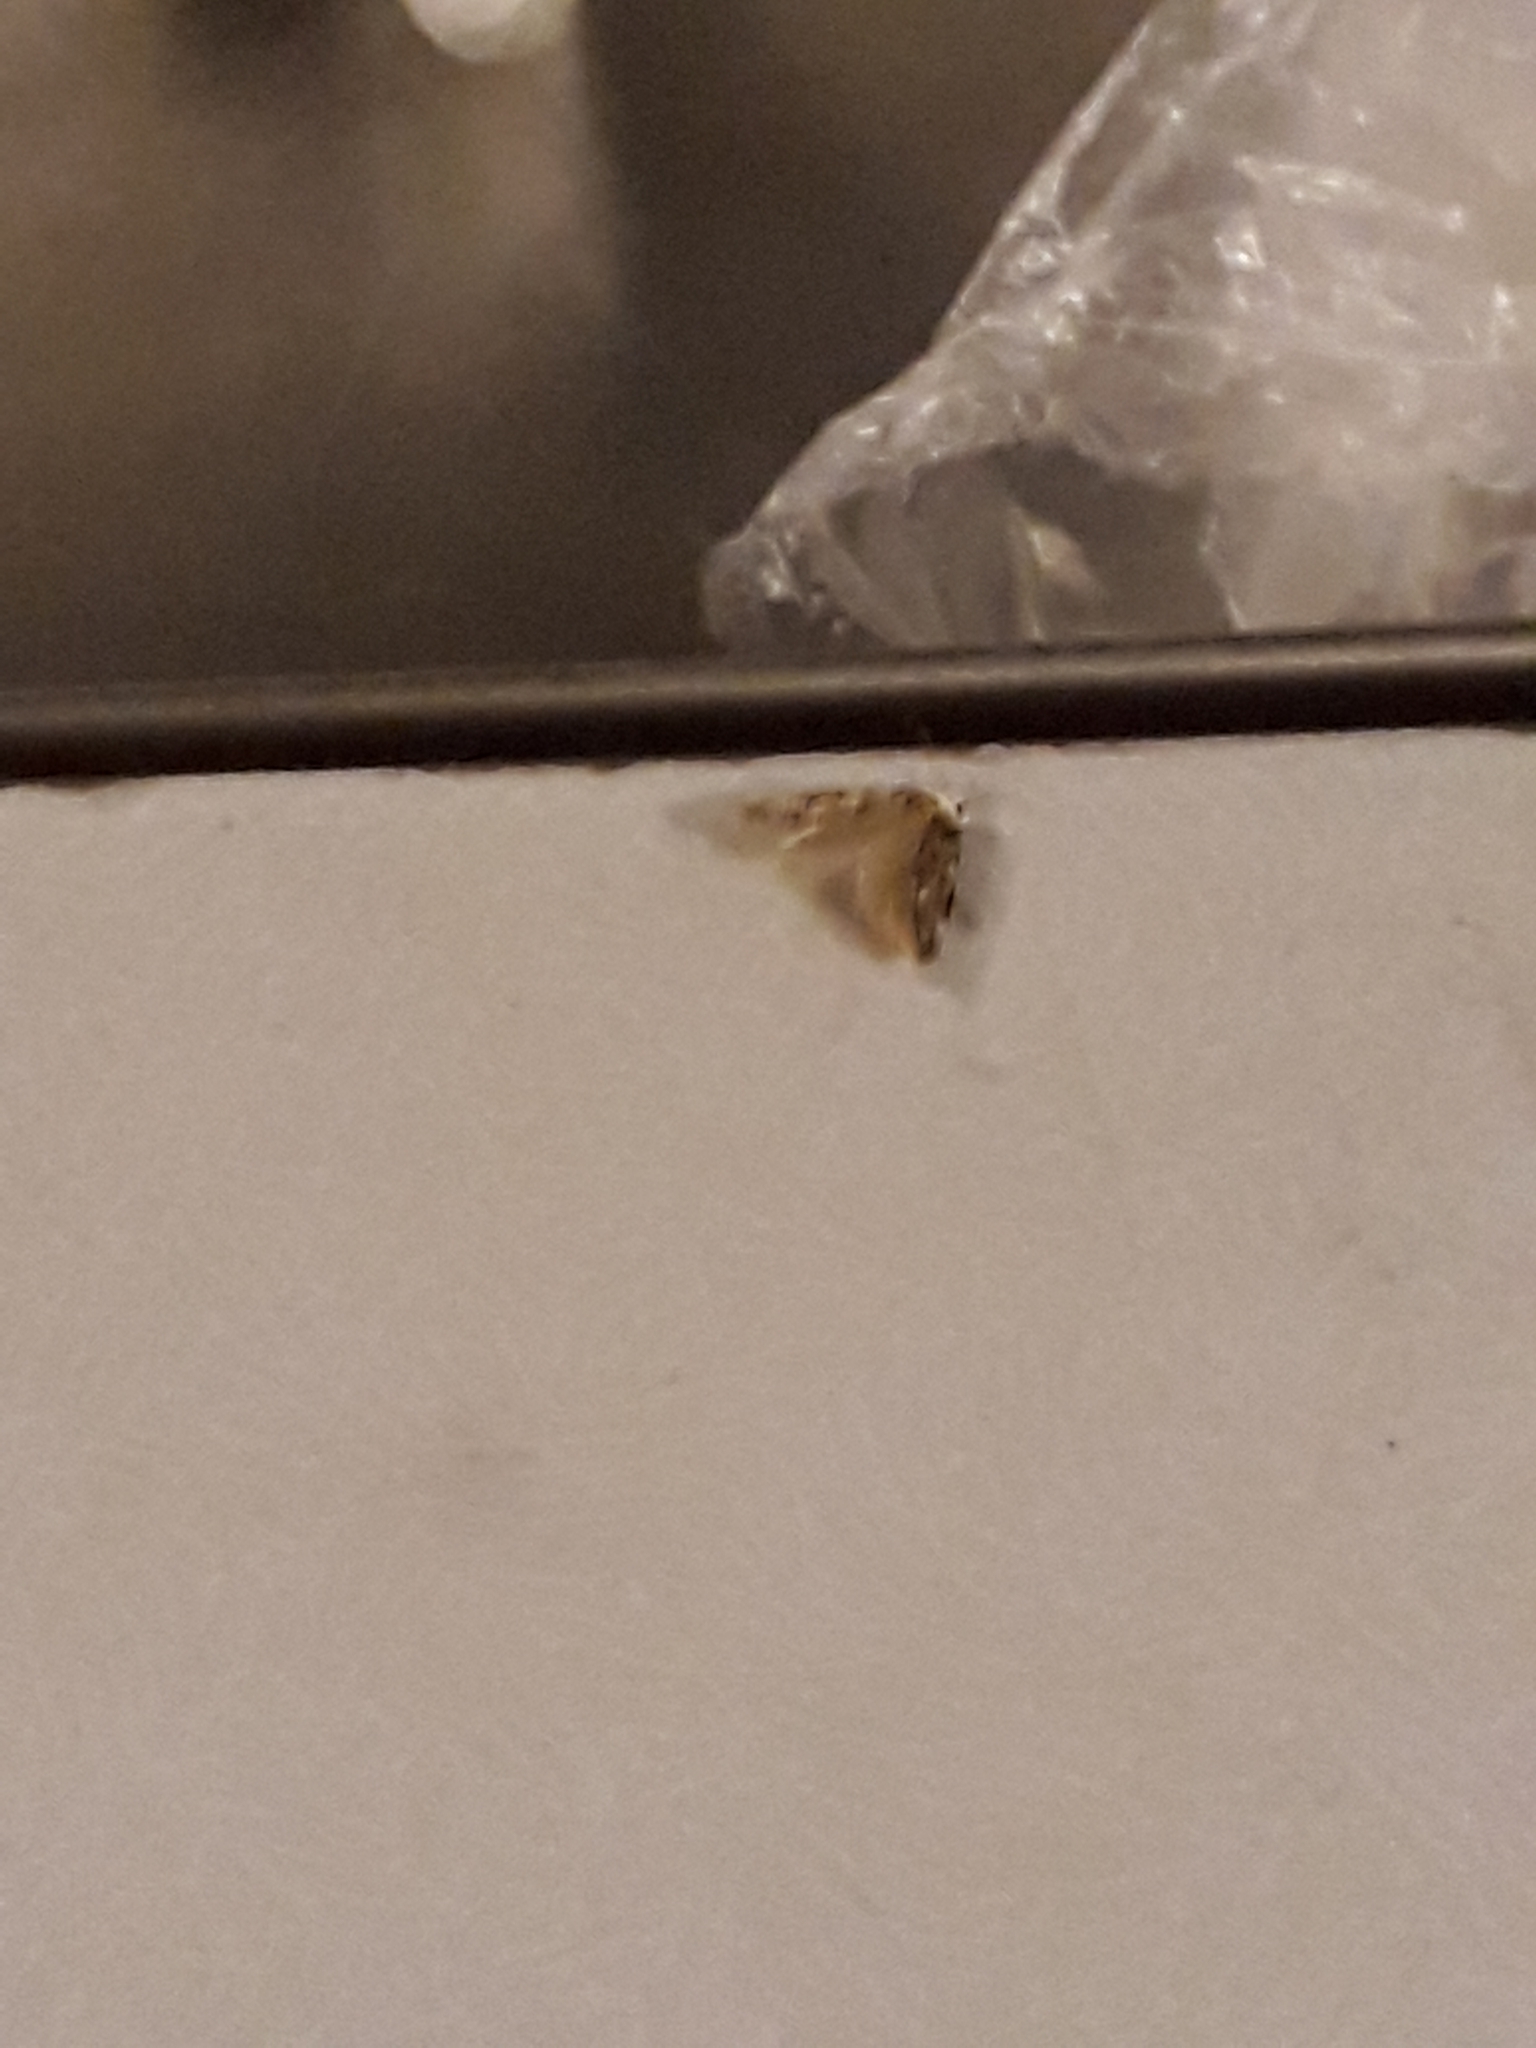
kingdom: Animalia
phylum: Arthropoda
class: Insecta
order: Lepidoptera
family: Oecophoridae
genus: Endrosis
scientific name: Endrosis sarcitrella
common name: White-shouldered house moth
